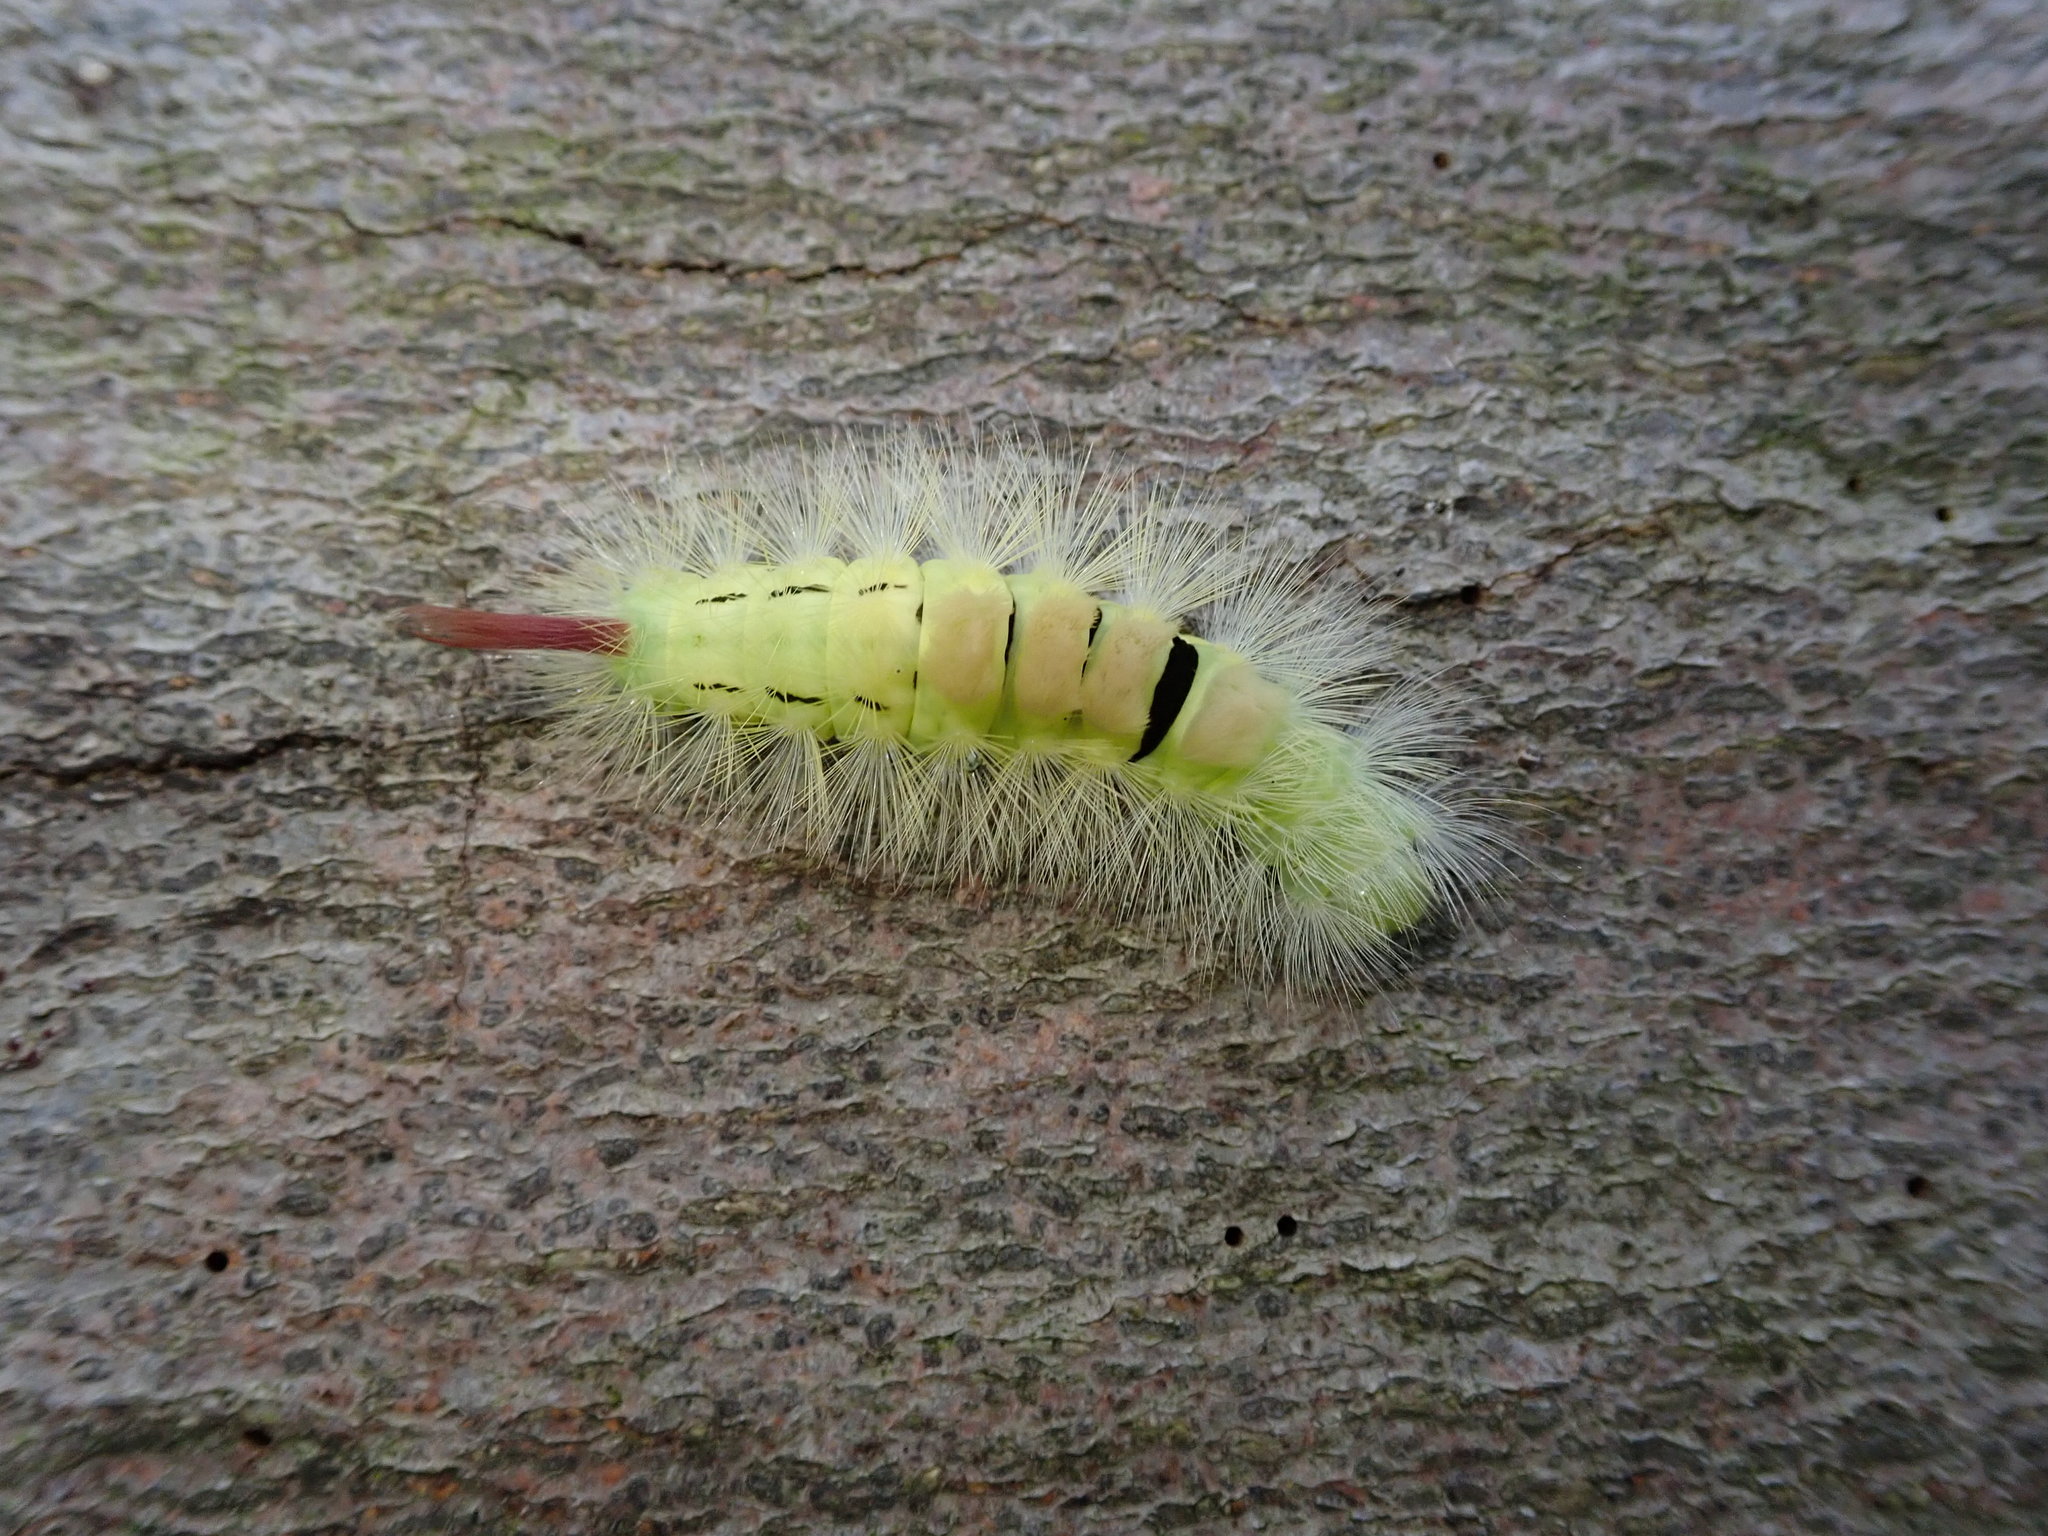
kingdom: Animalia
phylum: Arthropoda
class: Insecta
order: Lepidoptera
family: Erebidae
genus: Calliteara
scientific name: Calliteara pudibunda
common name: Pale tussock
